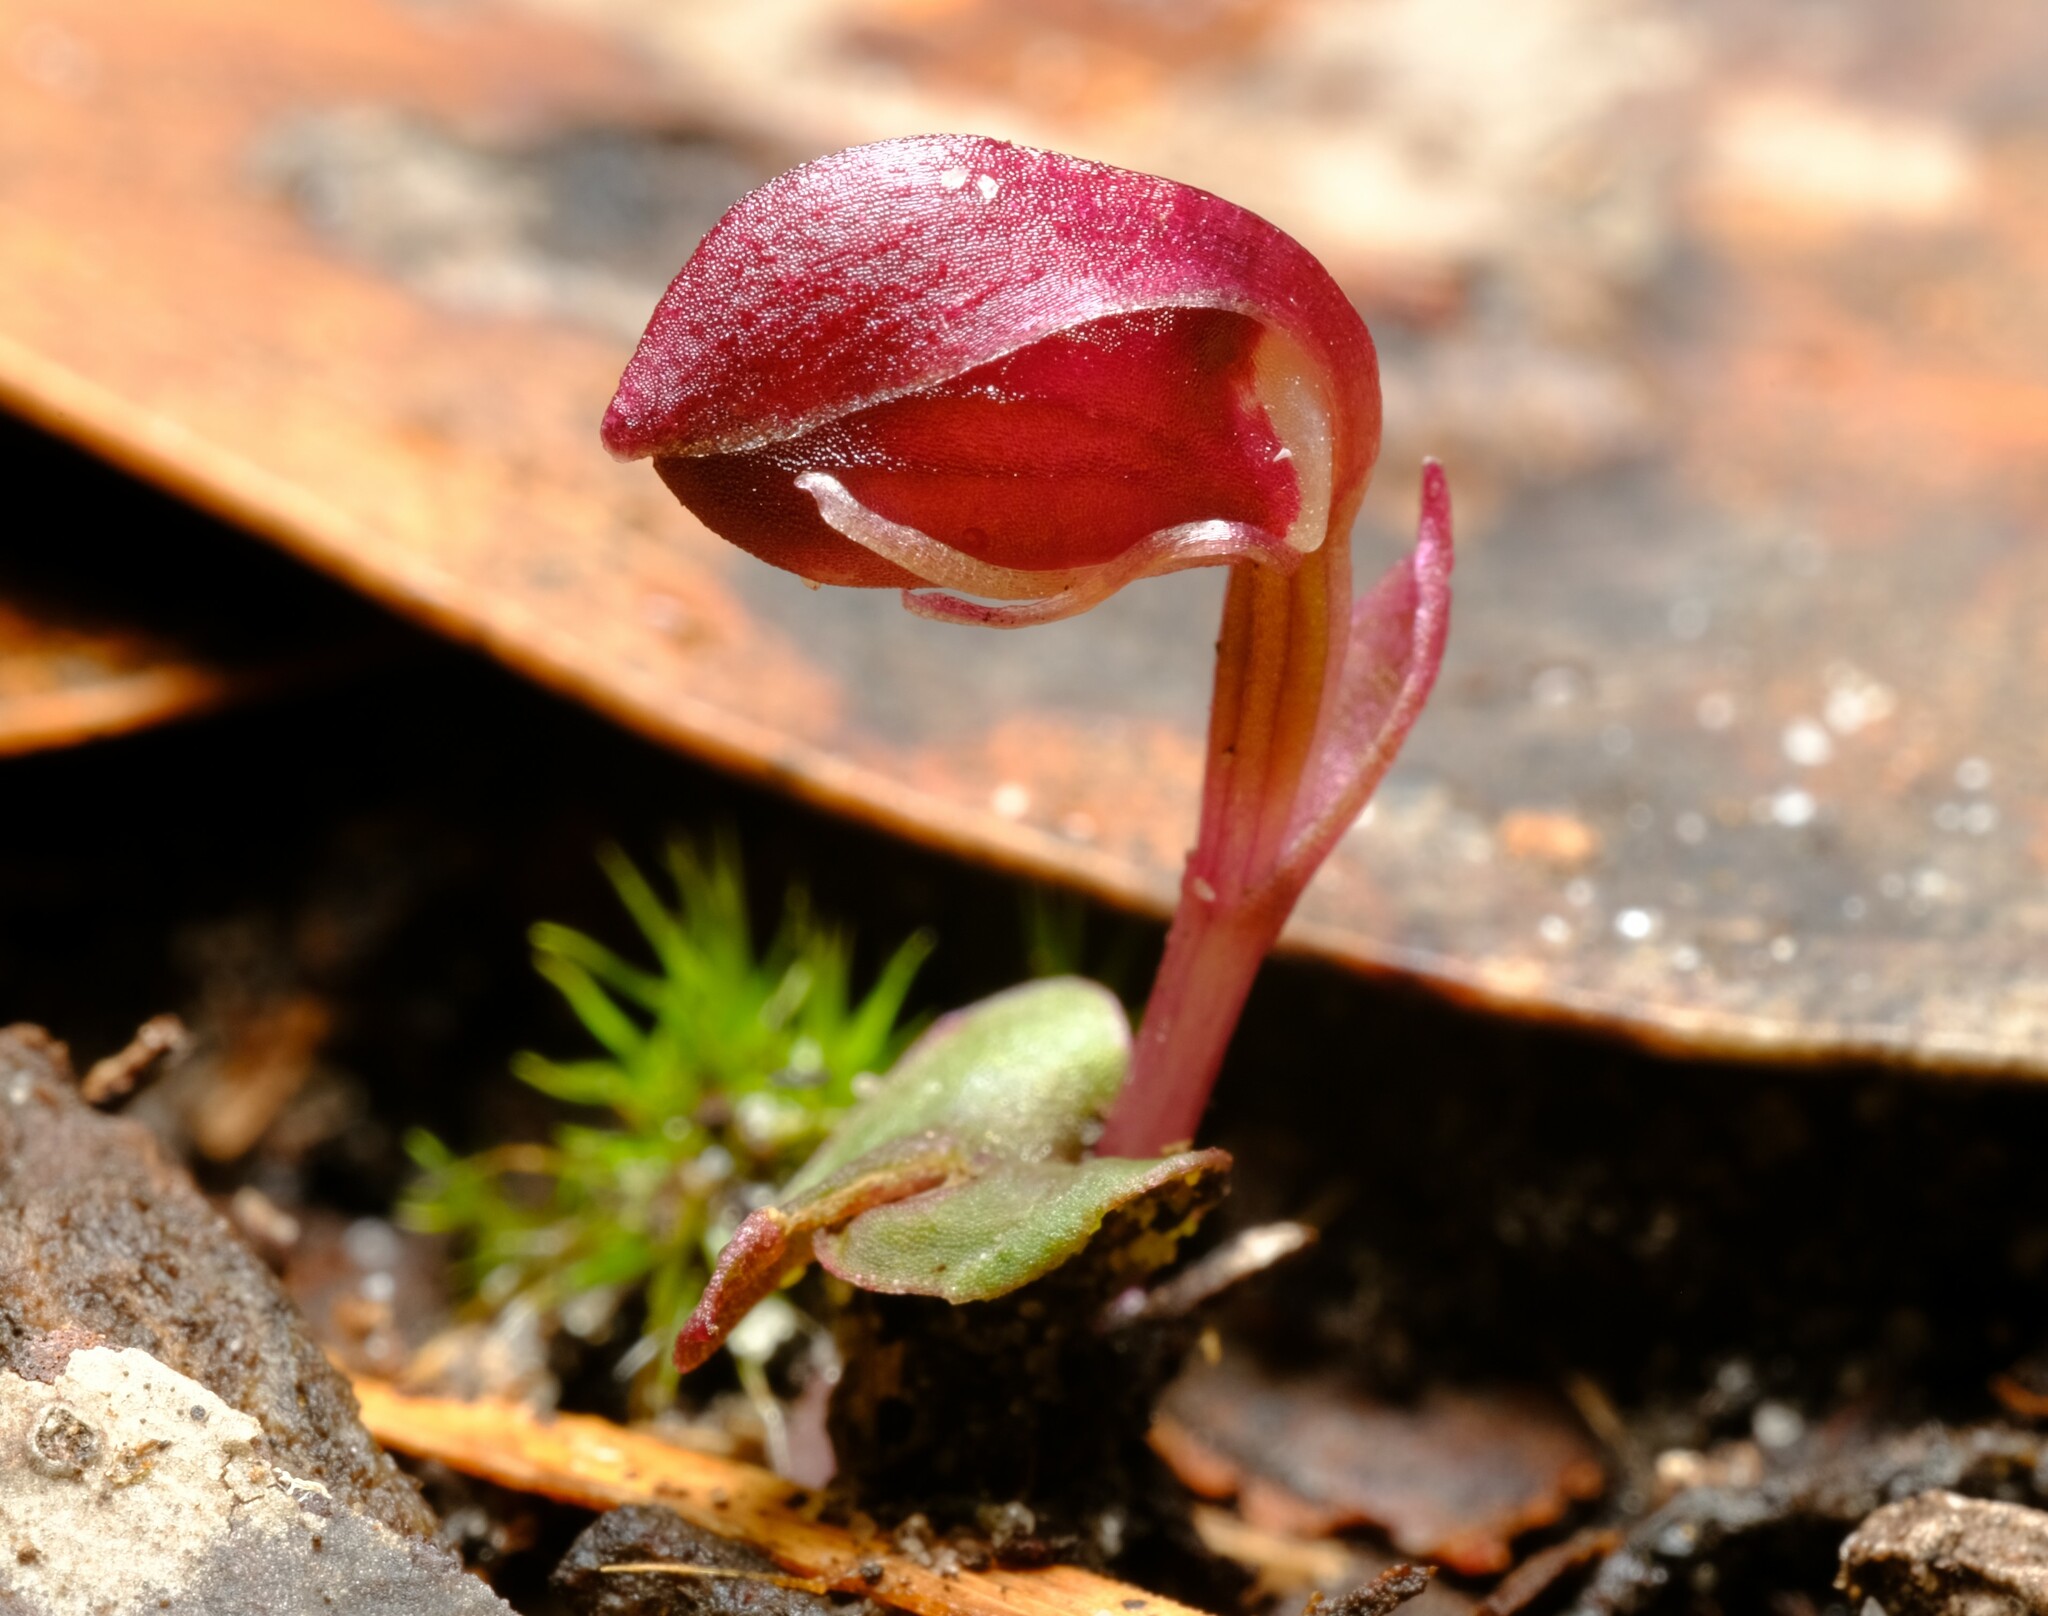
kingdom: Plantae
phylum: Tracheophyta
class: Liliopsida
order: Asparagales
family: Orchidaceae
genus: Corybas
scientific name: Corybas unguiculatus
